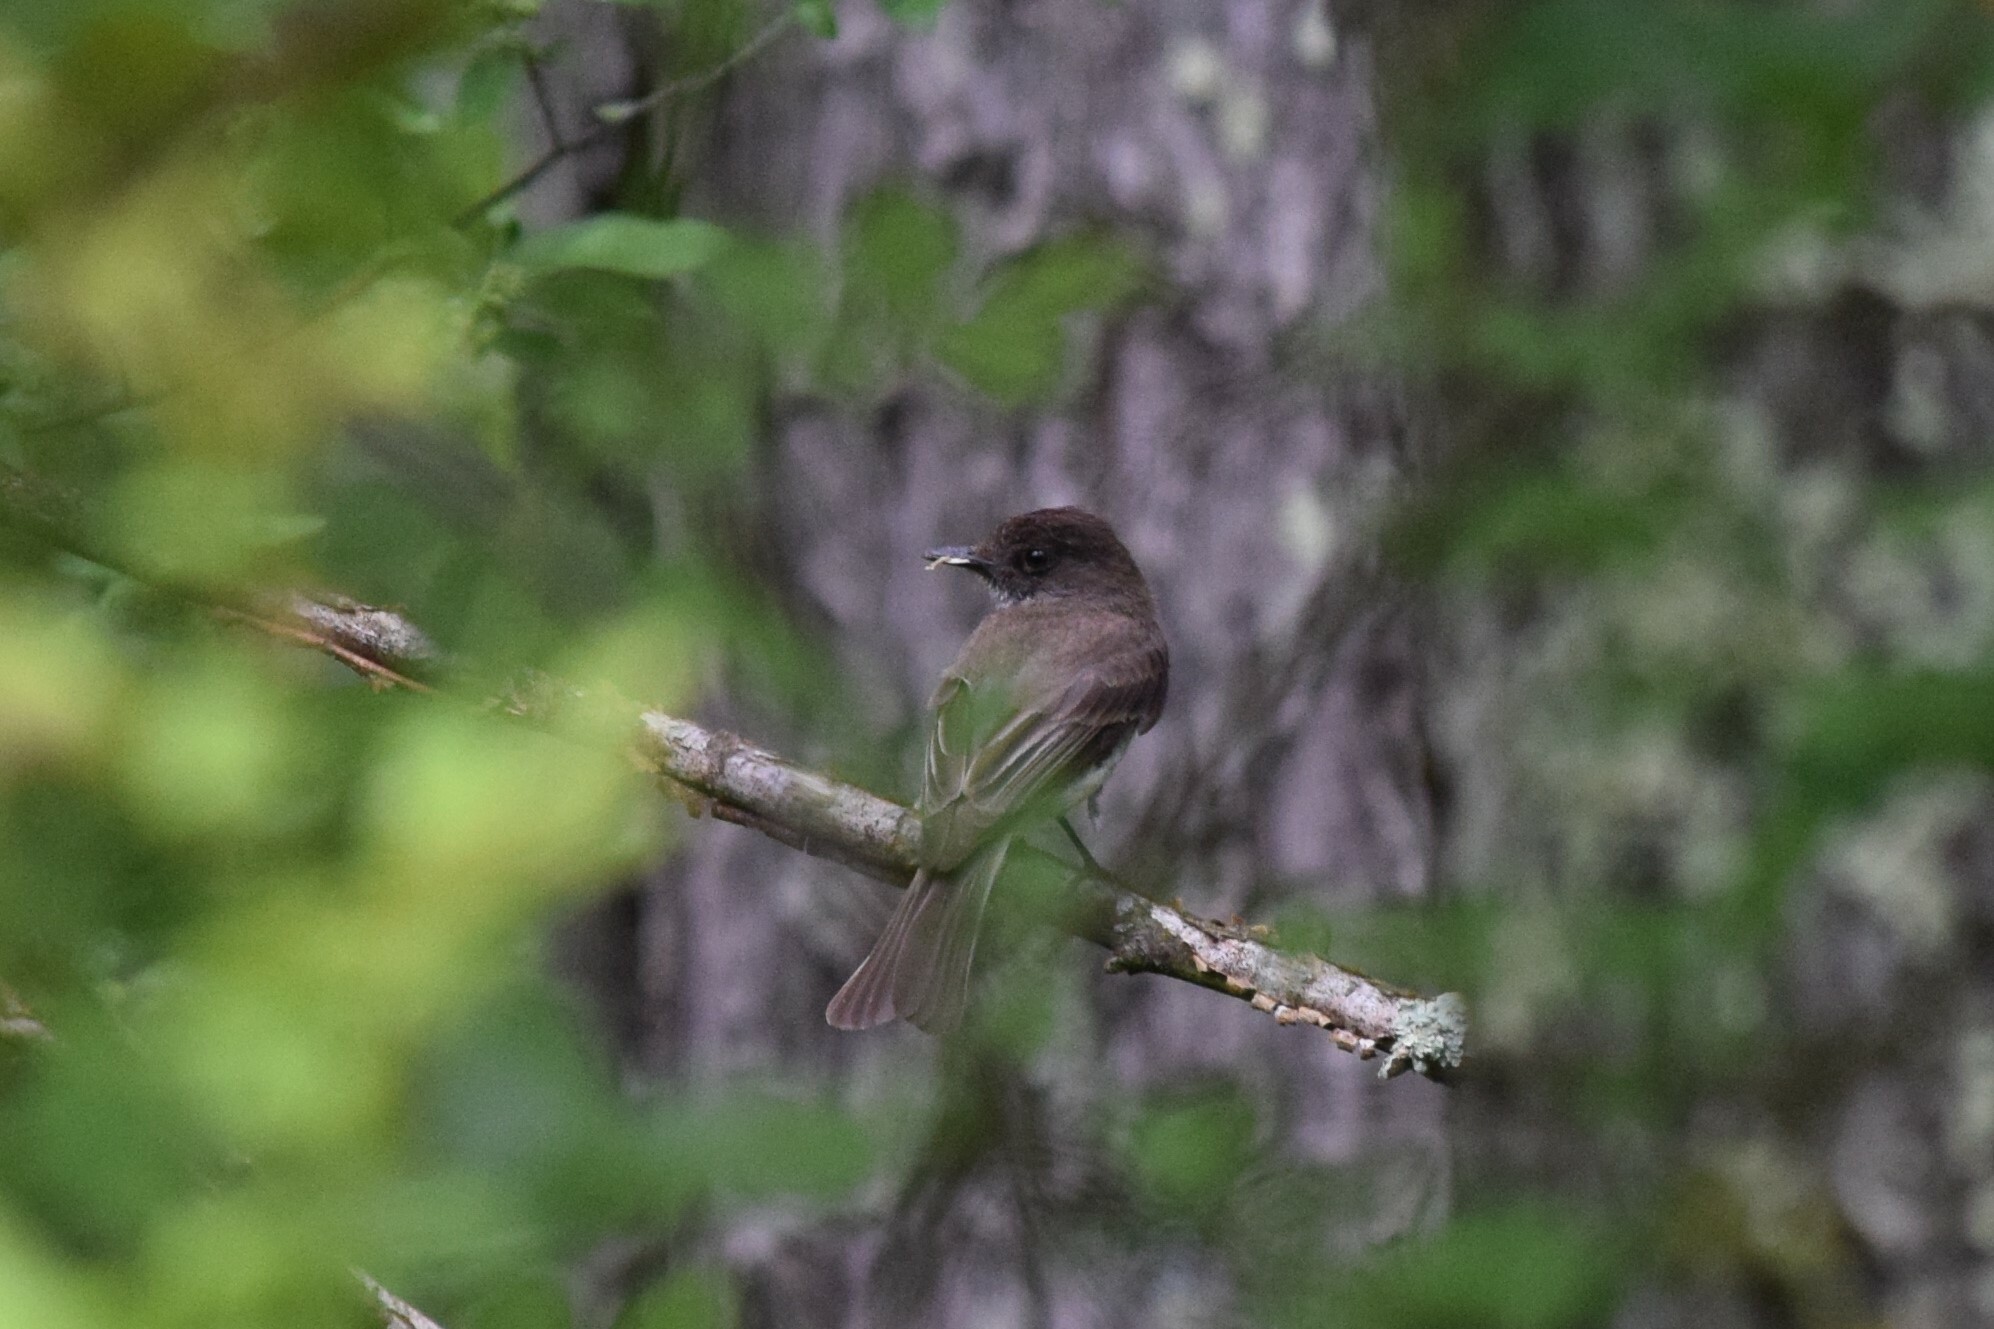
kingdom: Animalia
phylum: Chordata
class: Aves
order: Passeriformes
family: Tyrannidae
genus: Sayornis
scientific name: Sayornis phoebe
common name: Eastern phoebe
